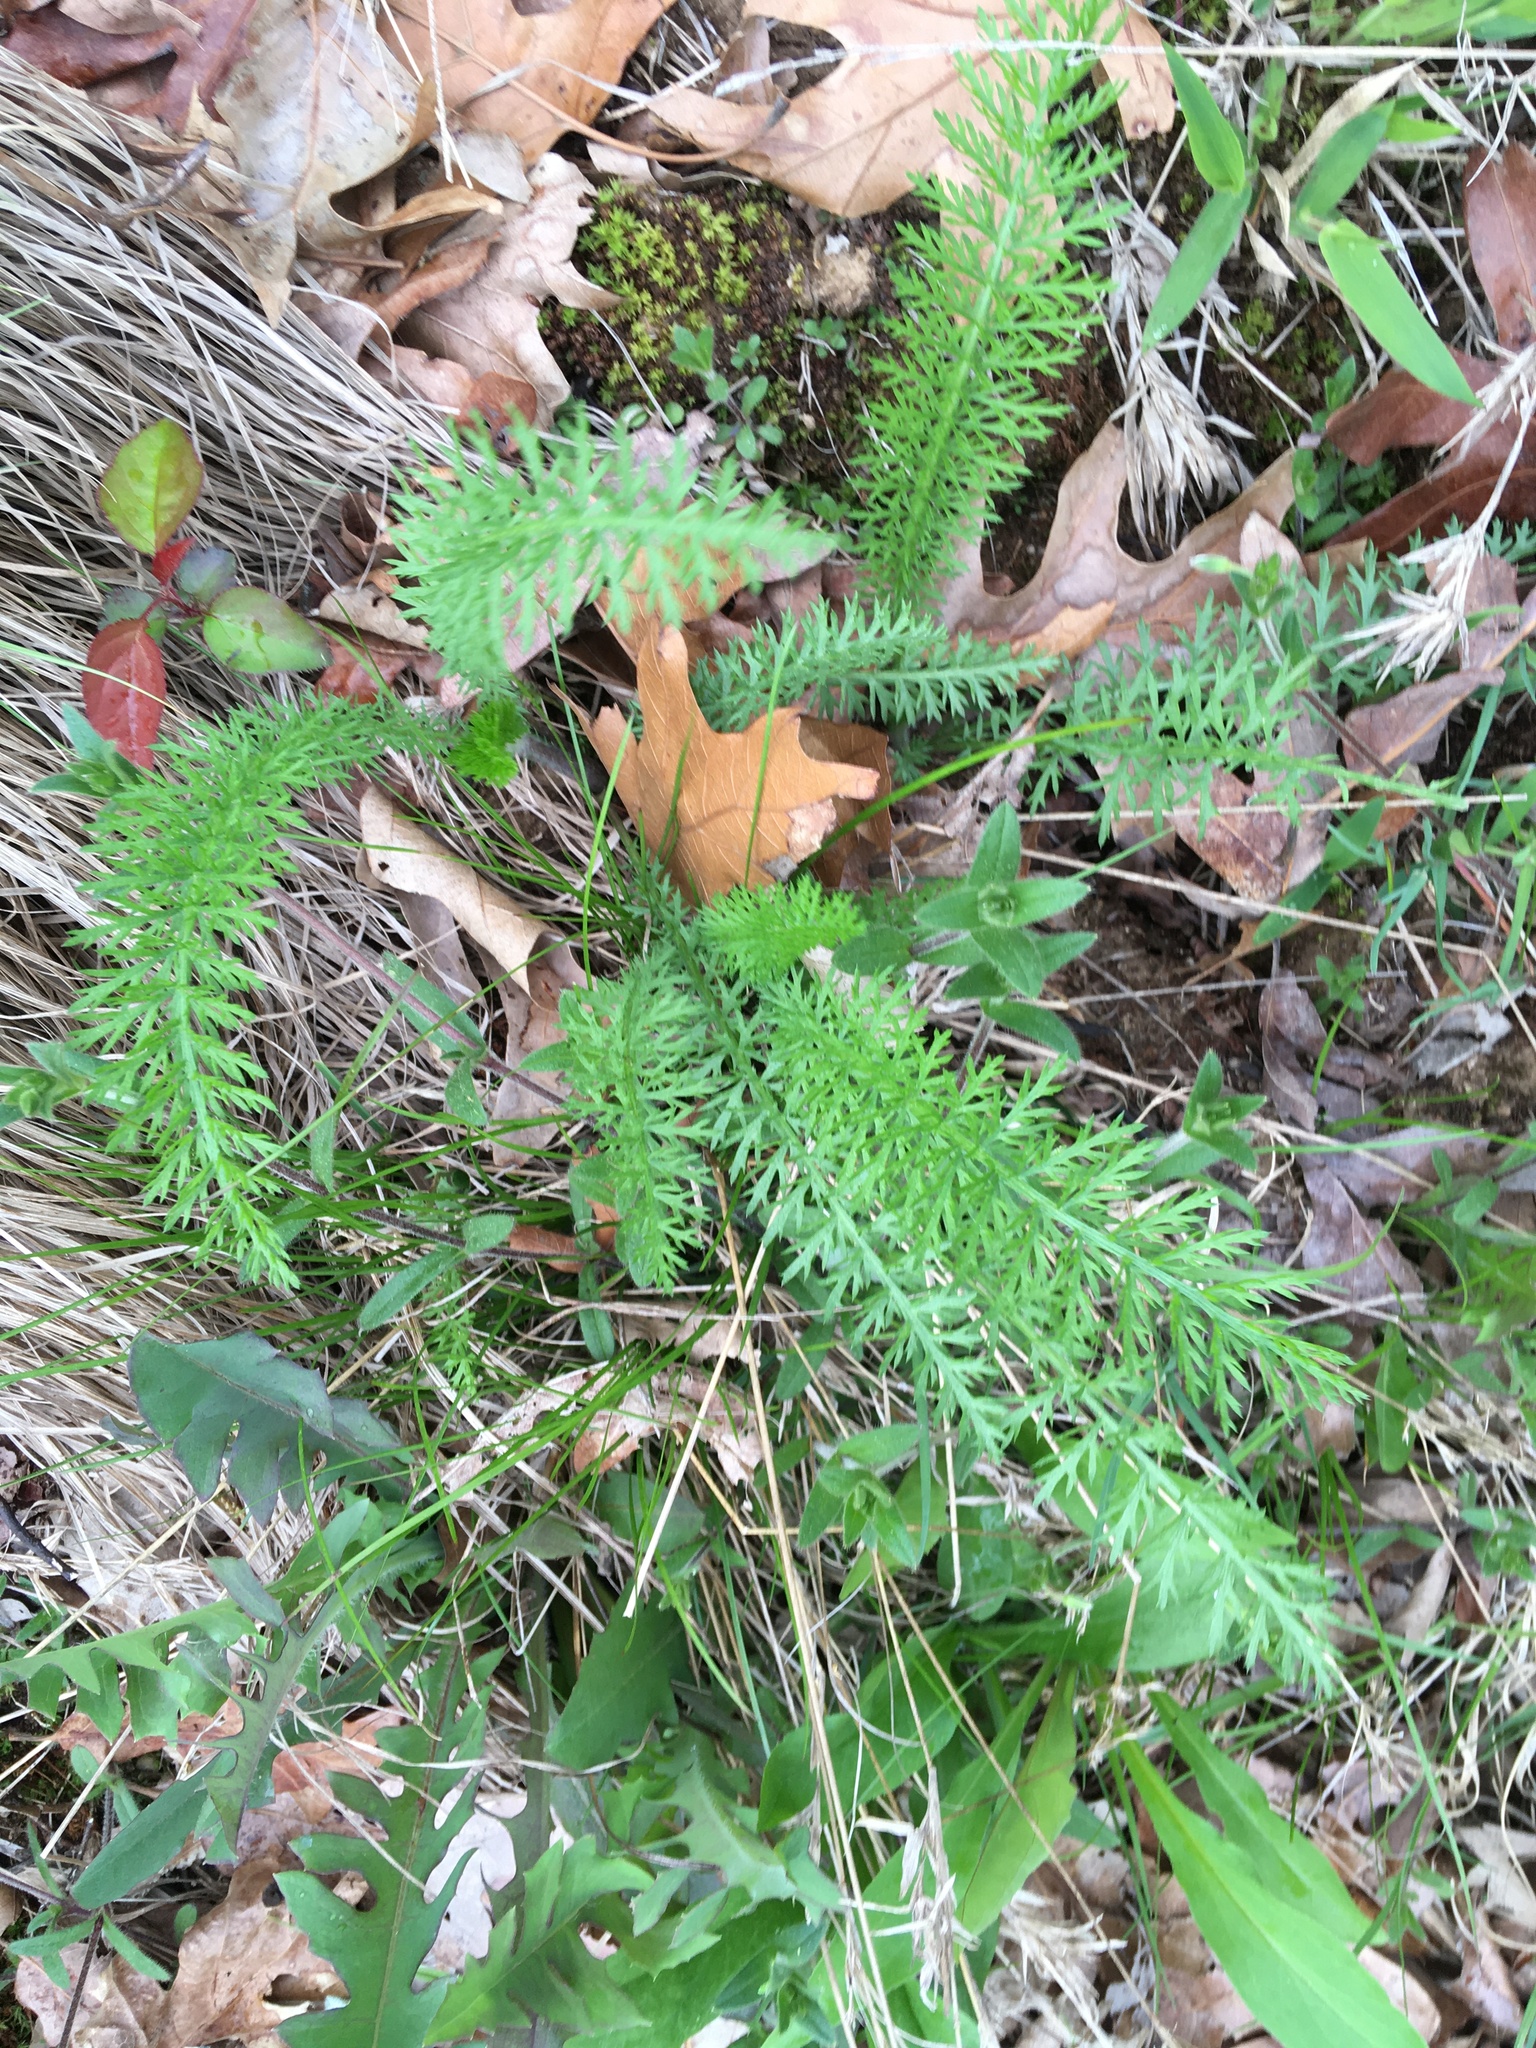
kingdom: Plantae
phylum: Tracheophyta
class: Magnoliopsida
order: Asterales
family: Asteraceae
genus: Achillea
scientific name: Achillea millefolium
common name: Yarrow
